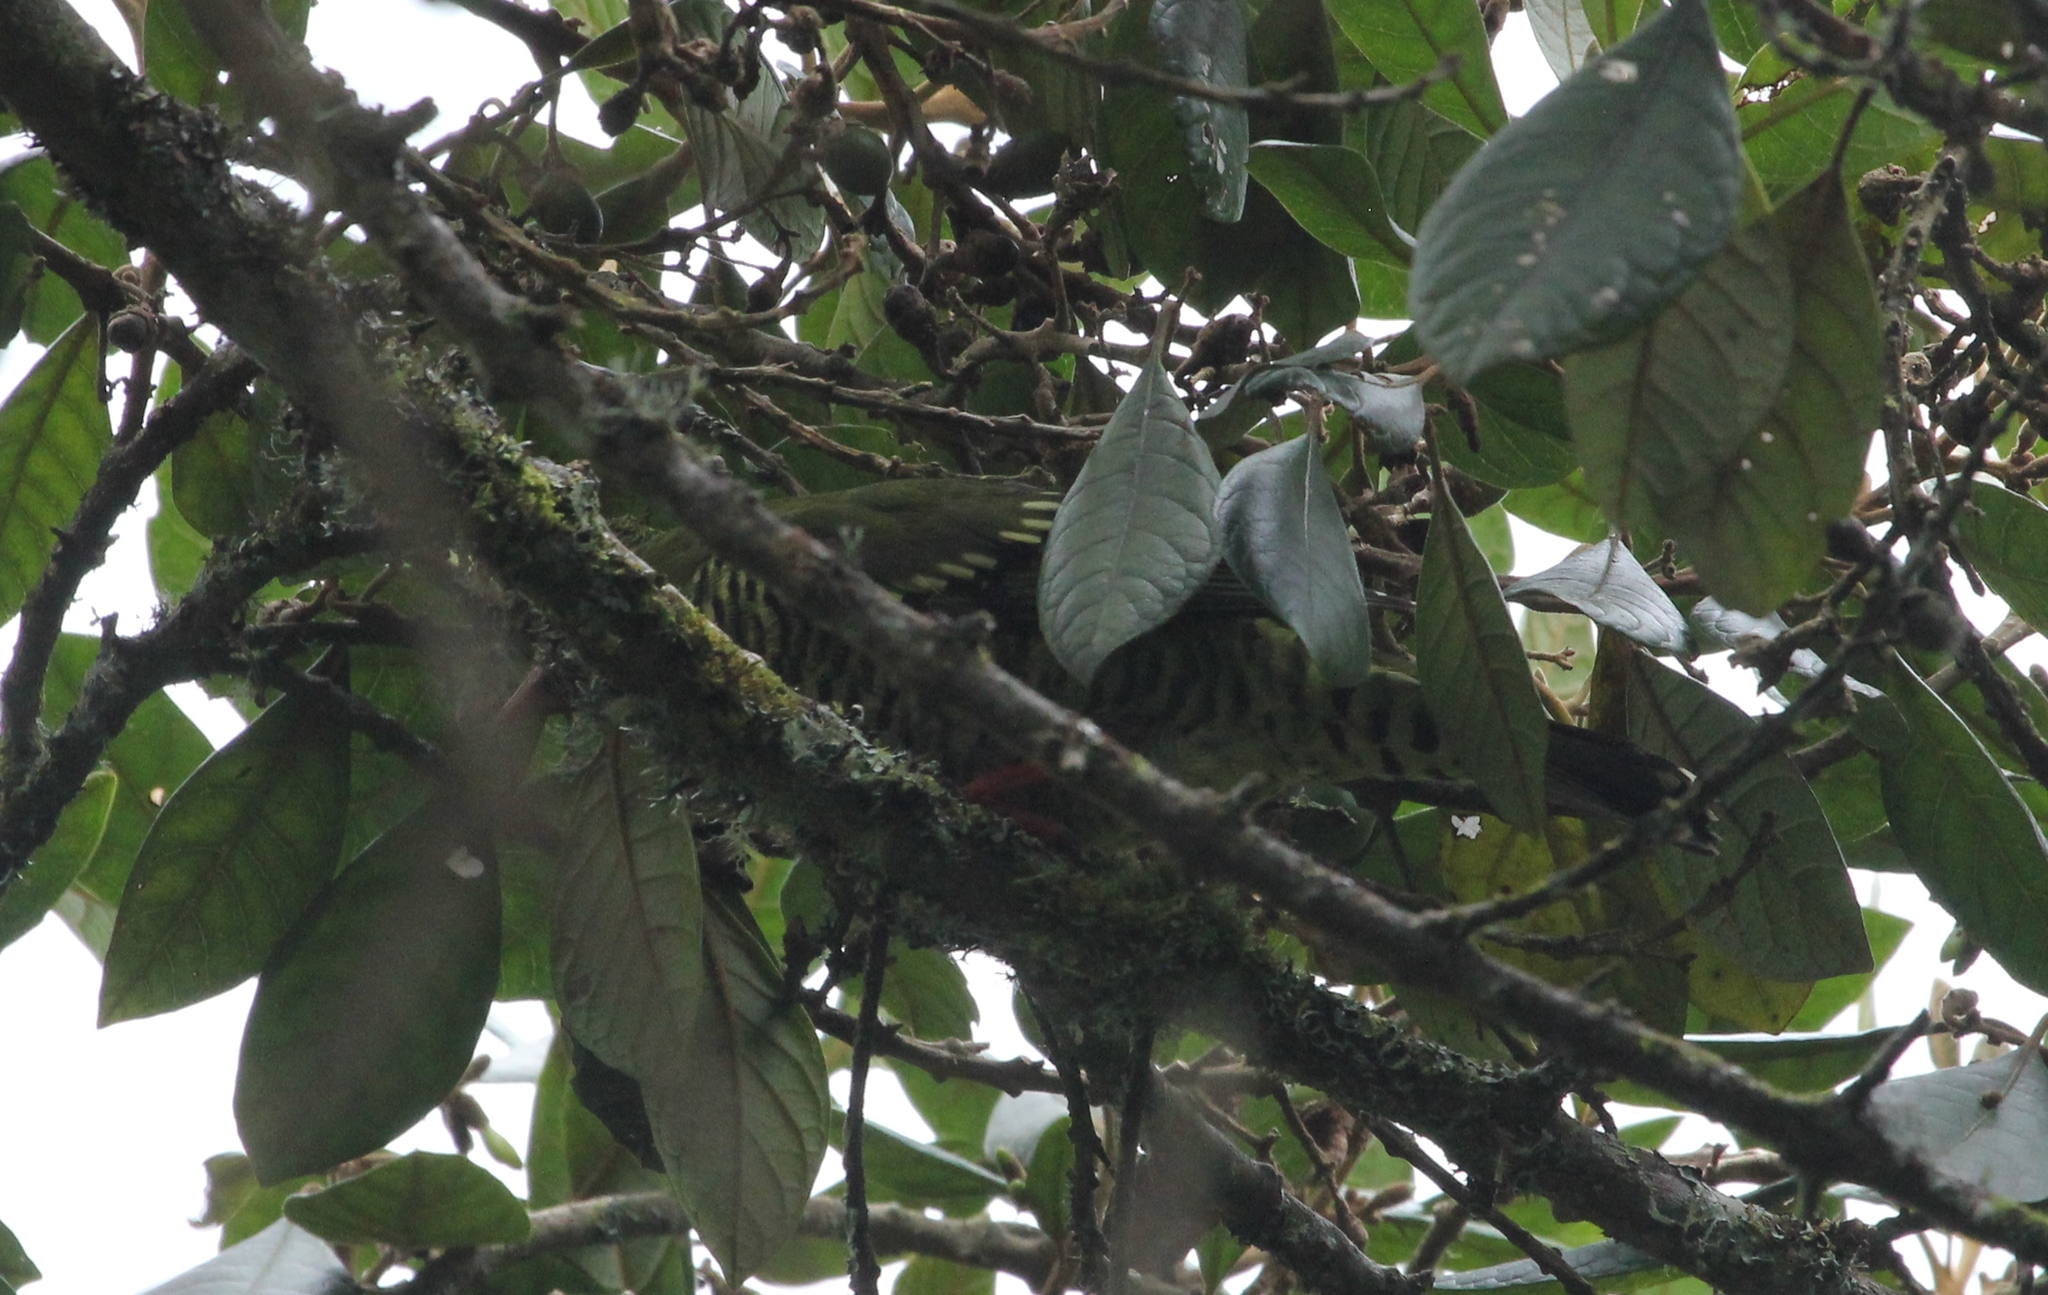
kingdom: Animalia
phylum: Chordata
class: Aves
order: Passeriformes
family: Cotingidae
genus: Pipreola
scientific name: Pipreola arcuata
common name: Barred fruiteater
